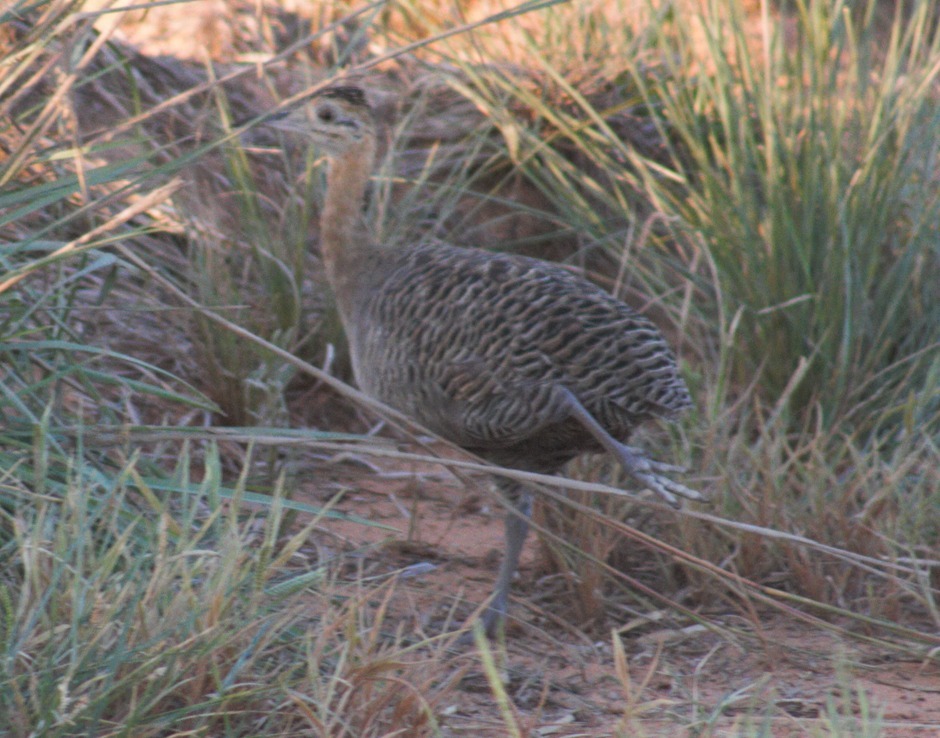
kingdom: Animalia
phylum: Chordata
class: Aves
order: Tinamiformes
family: Tinamidae
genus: Rhynchotus
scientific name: Rhynchotus rufescens
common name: Red-winged tinamou
